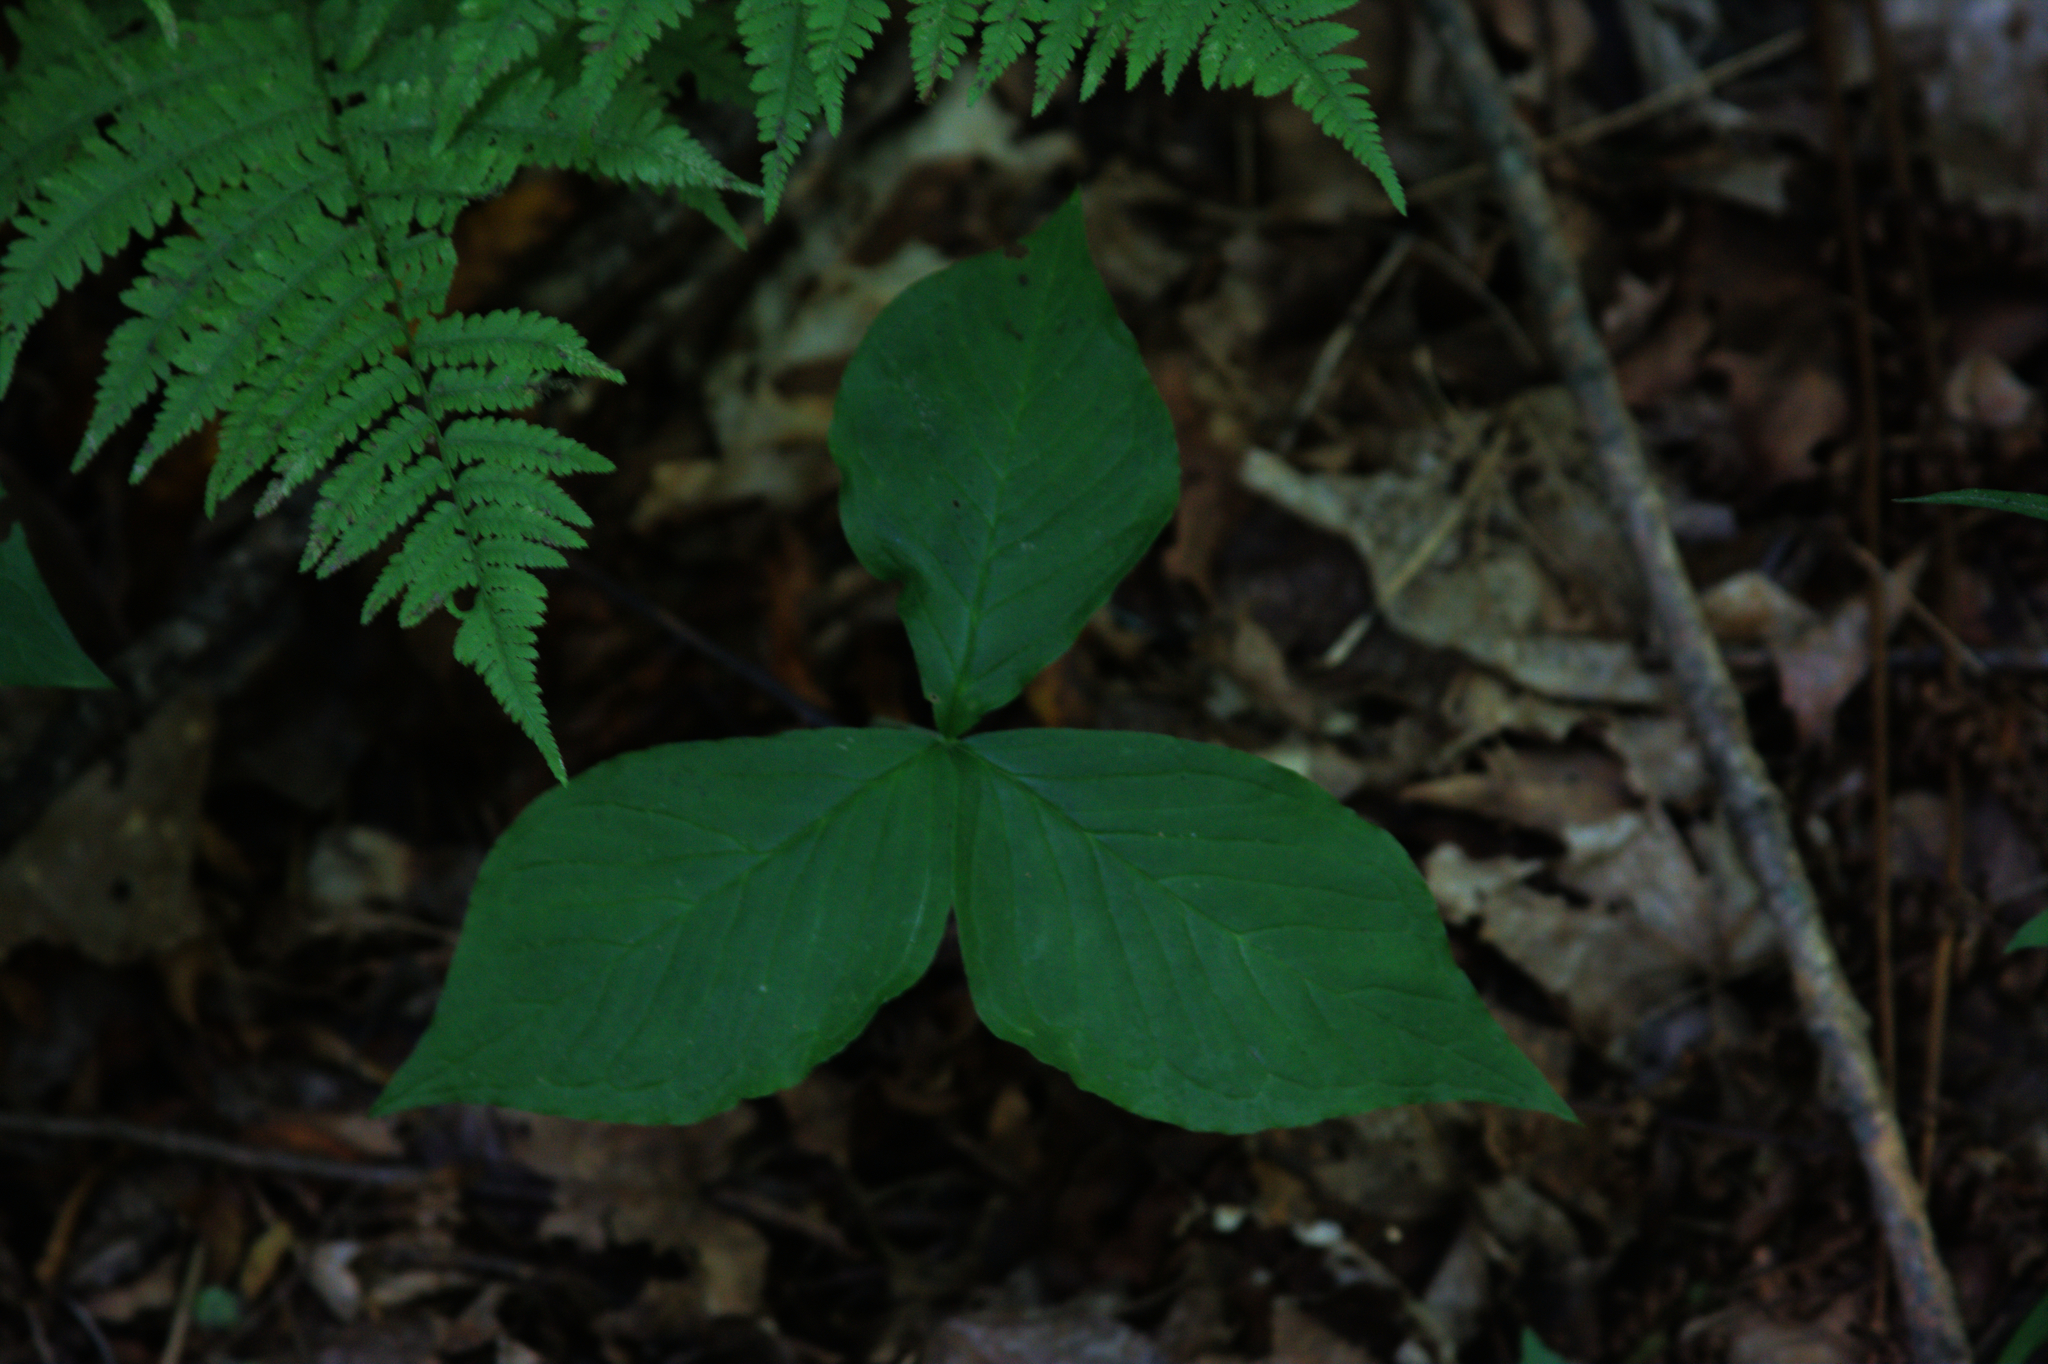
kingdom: Plantae
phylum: Tracheophyta
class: Liliopsida
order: Alismatales
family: Araceae
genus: Arisaema
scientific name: Arisaema triphyllum
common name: Jack-in-the-pulpit
